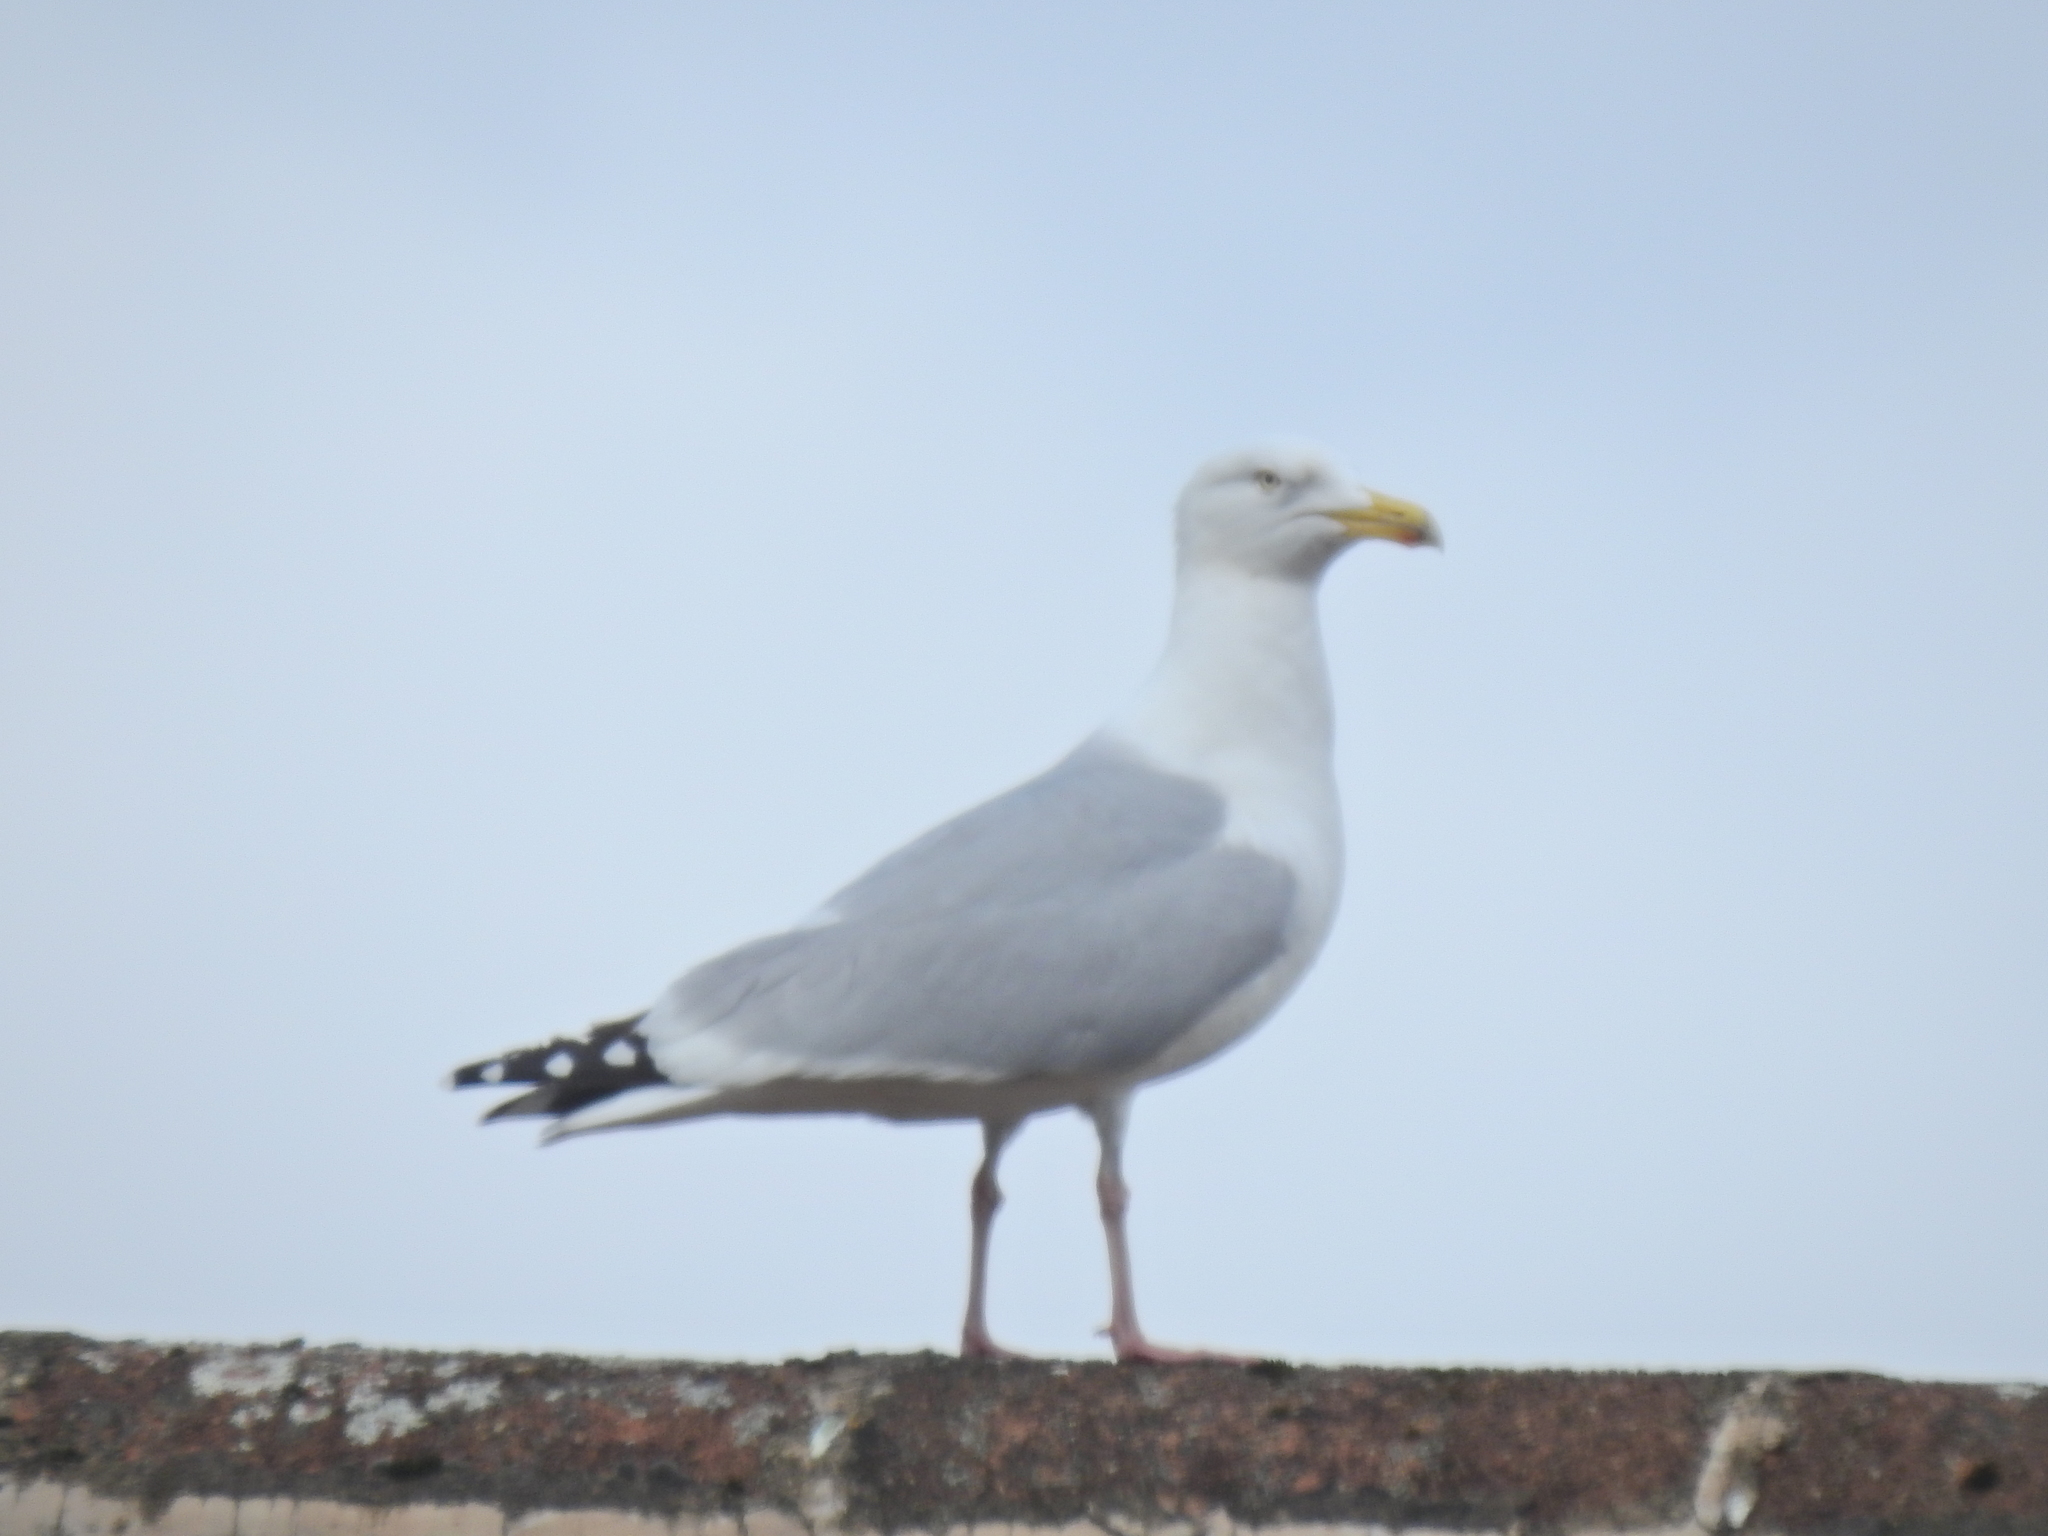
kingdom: Animalia
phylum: Chordata
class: Aves
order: Charadriiformes
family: Laridae
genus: Larus
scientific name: Larus argentatus
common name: Herring gull
